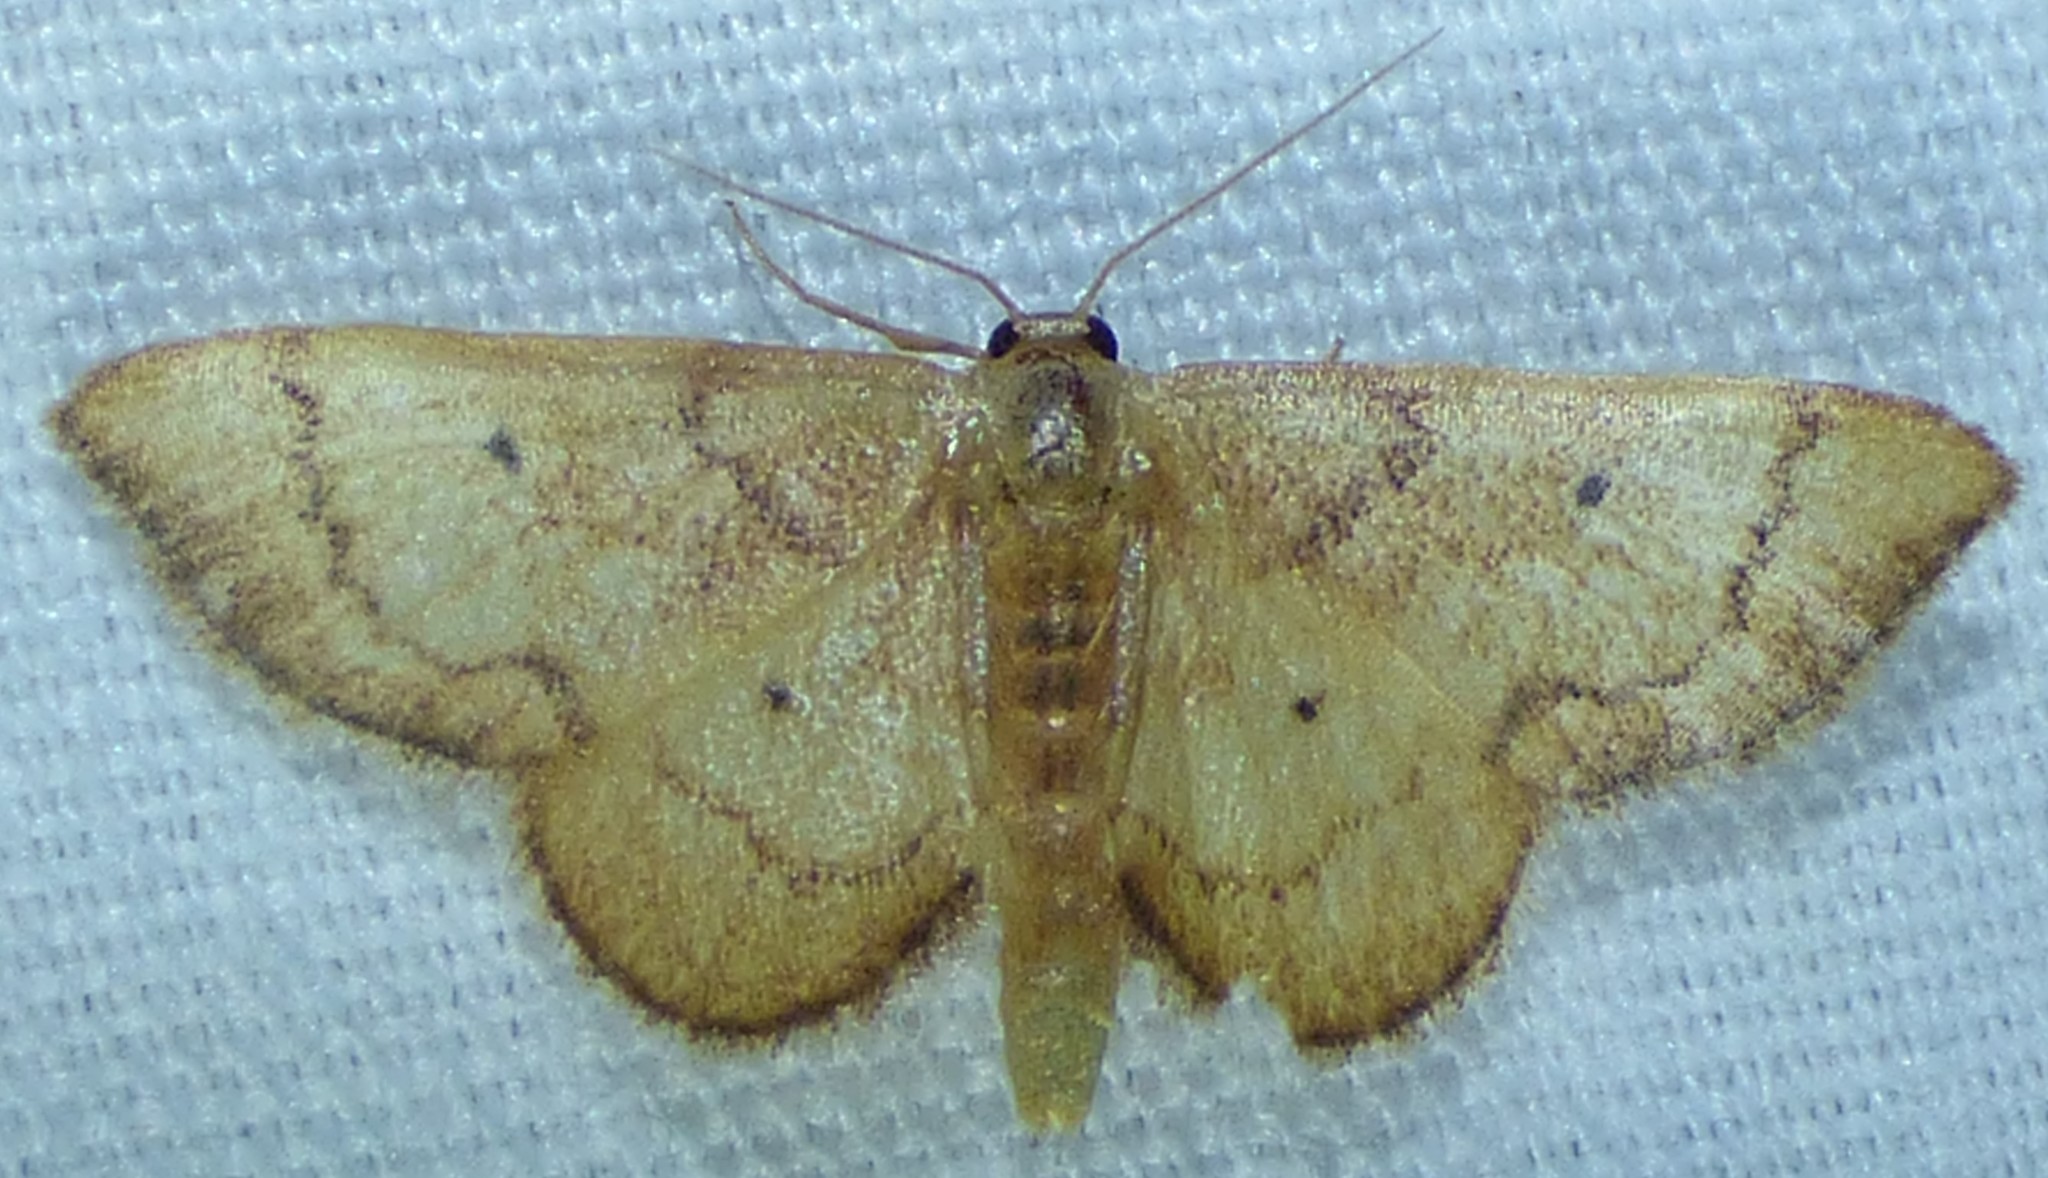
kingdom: Animalia
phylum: Arthropoda
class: Insecta
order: Lepidoptera
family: Geometridae
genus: Idaea
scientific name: Idaea demissaria
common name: Red-bordered wave
